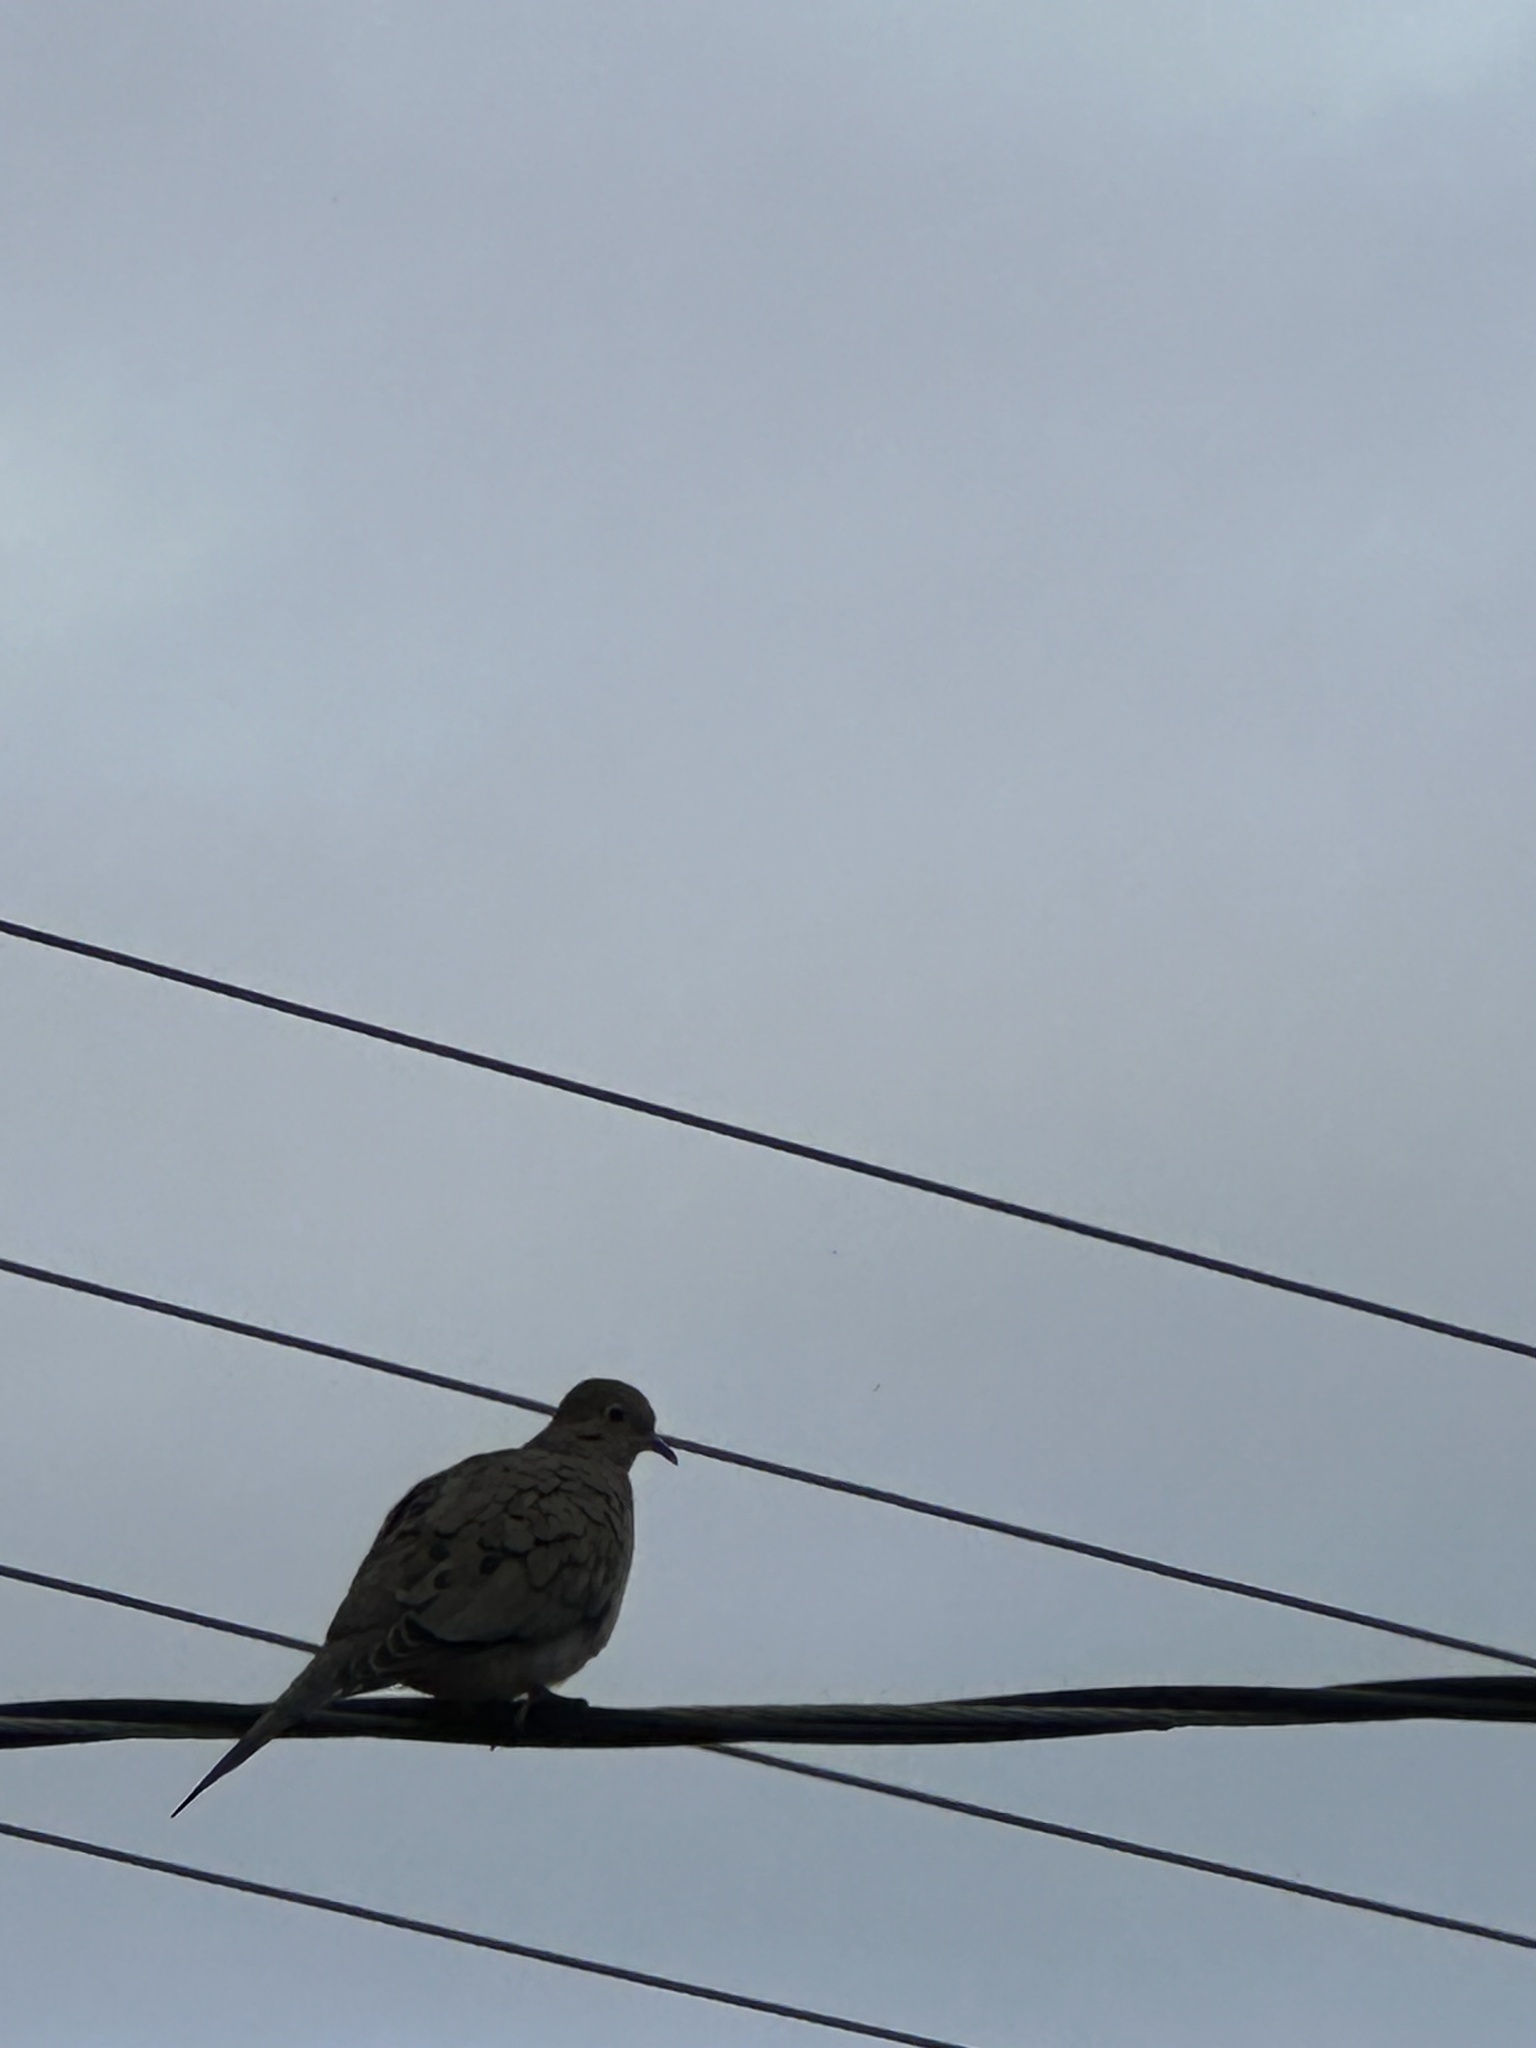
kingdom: Animalia
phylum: Chordata
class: Aves
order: Columbiformes
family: Columbidae
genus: Zenaida
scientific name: Zenaida macroura
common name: Mourning dove
